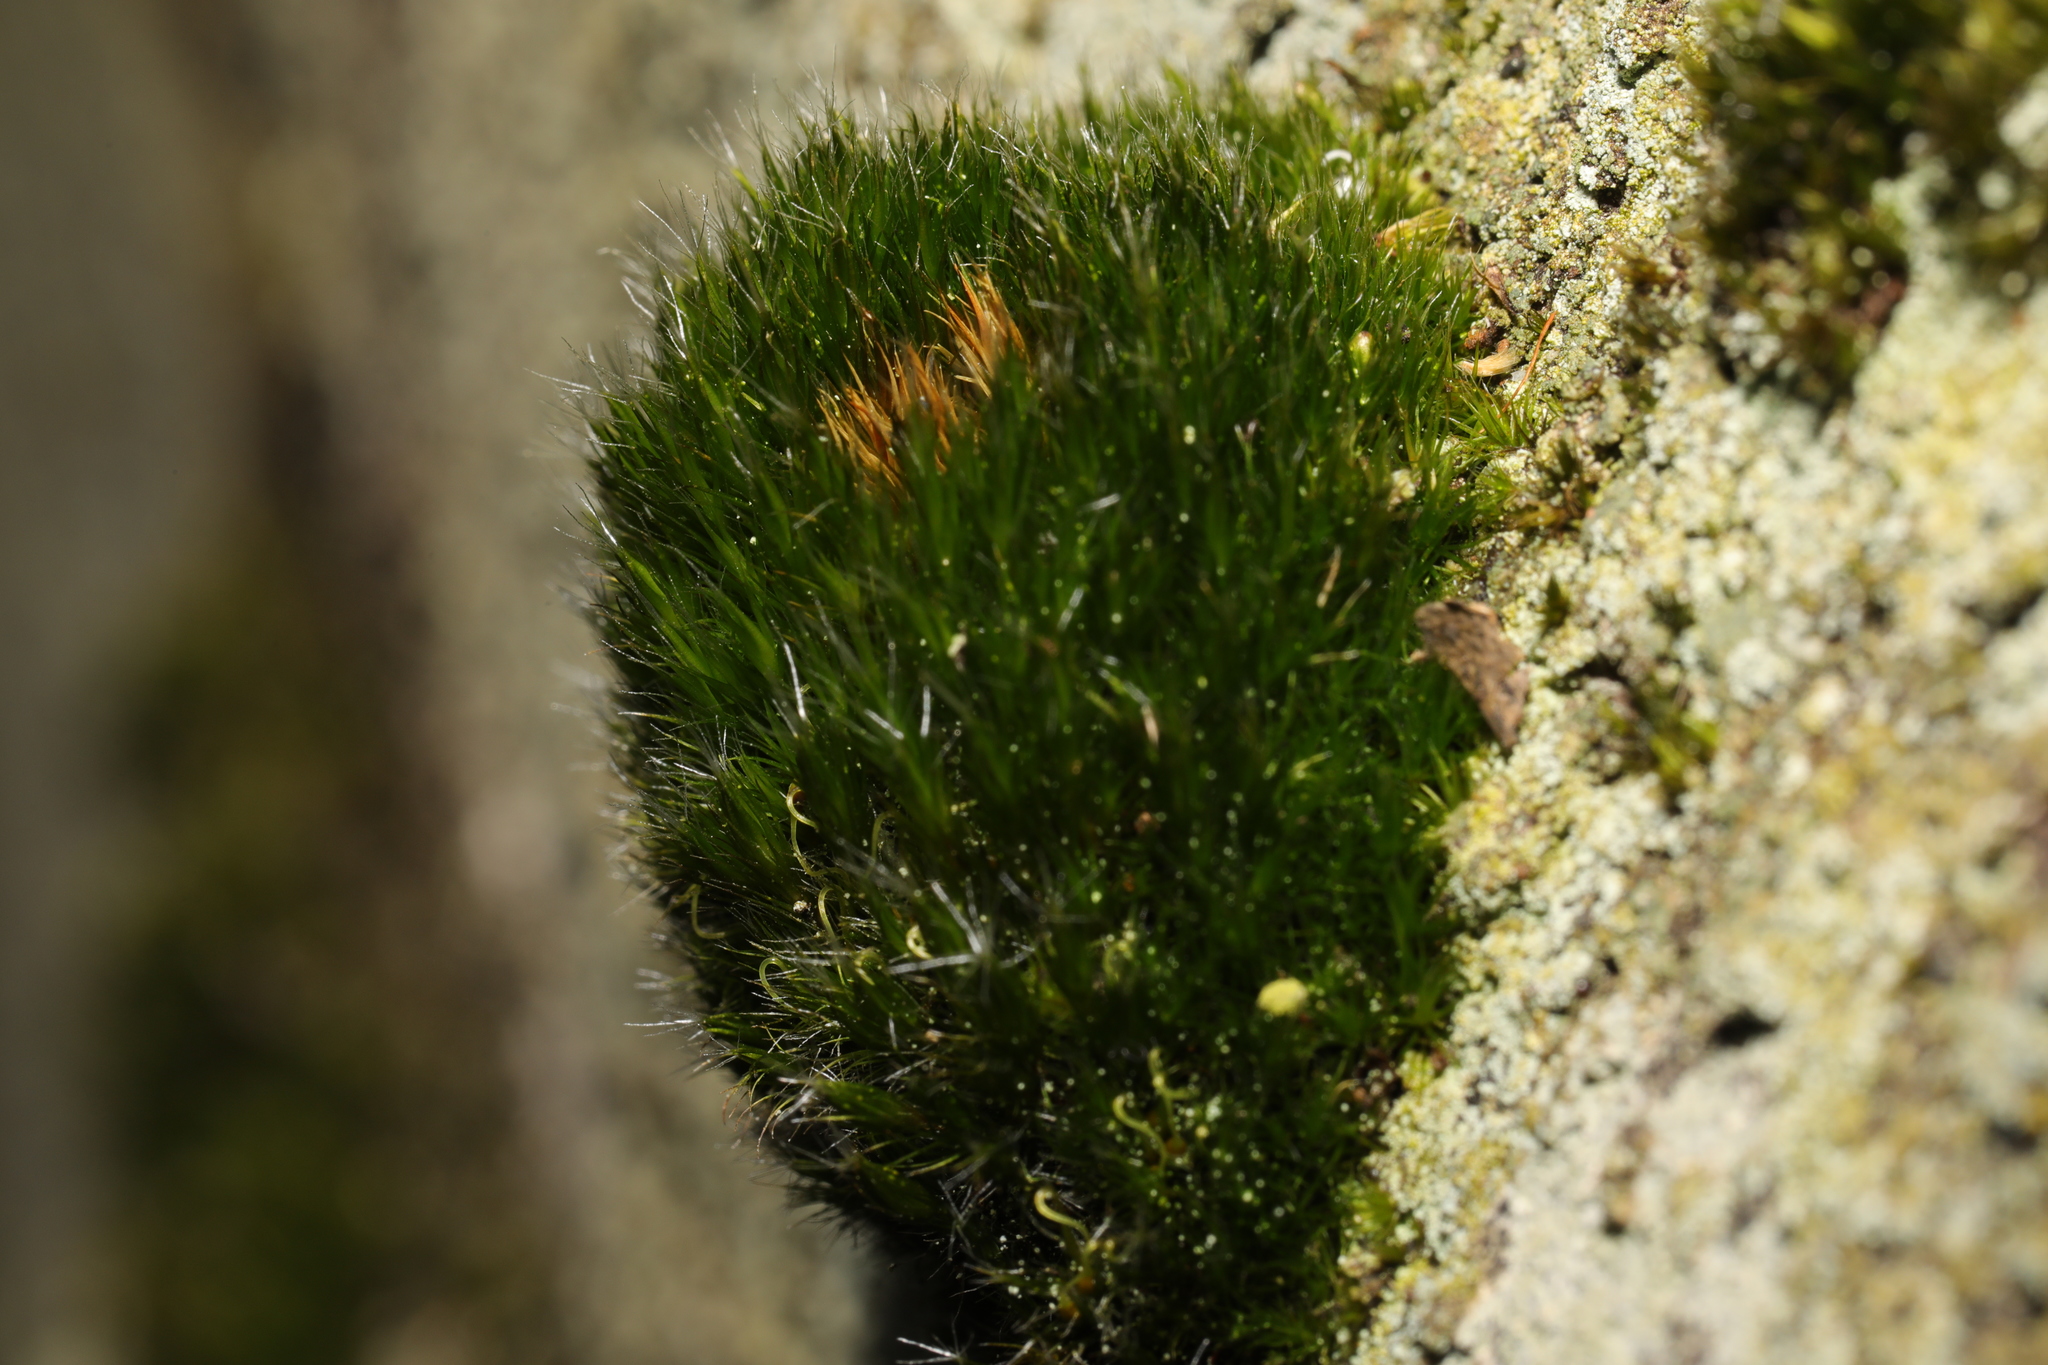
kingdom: Plantae
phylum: Bryophyta
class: Bryopsida
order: Dicranales
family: Leucobryaceae
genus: Campylopus
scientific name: Campylopus introflexus
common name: Heath star moss
